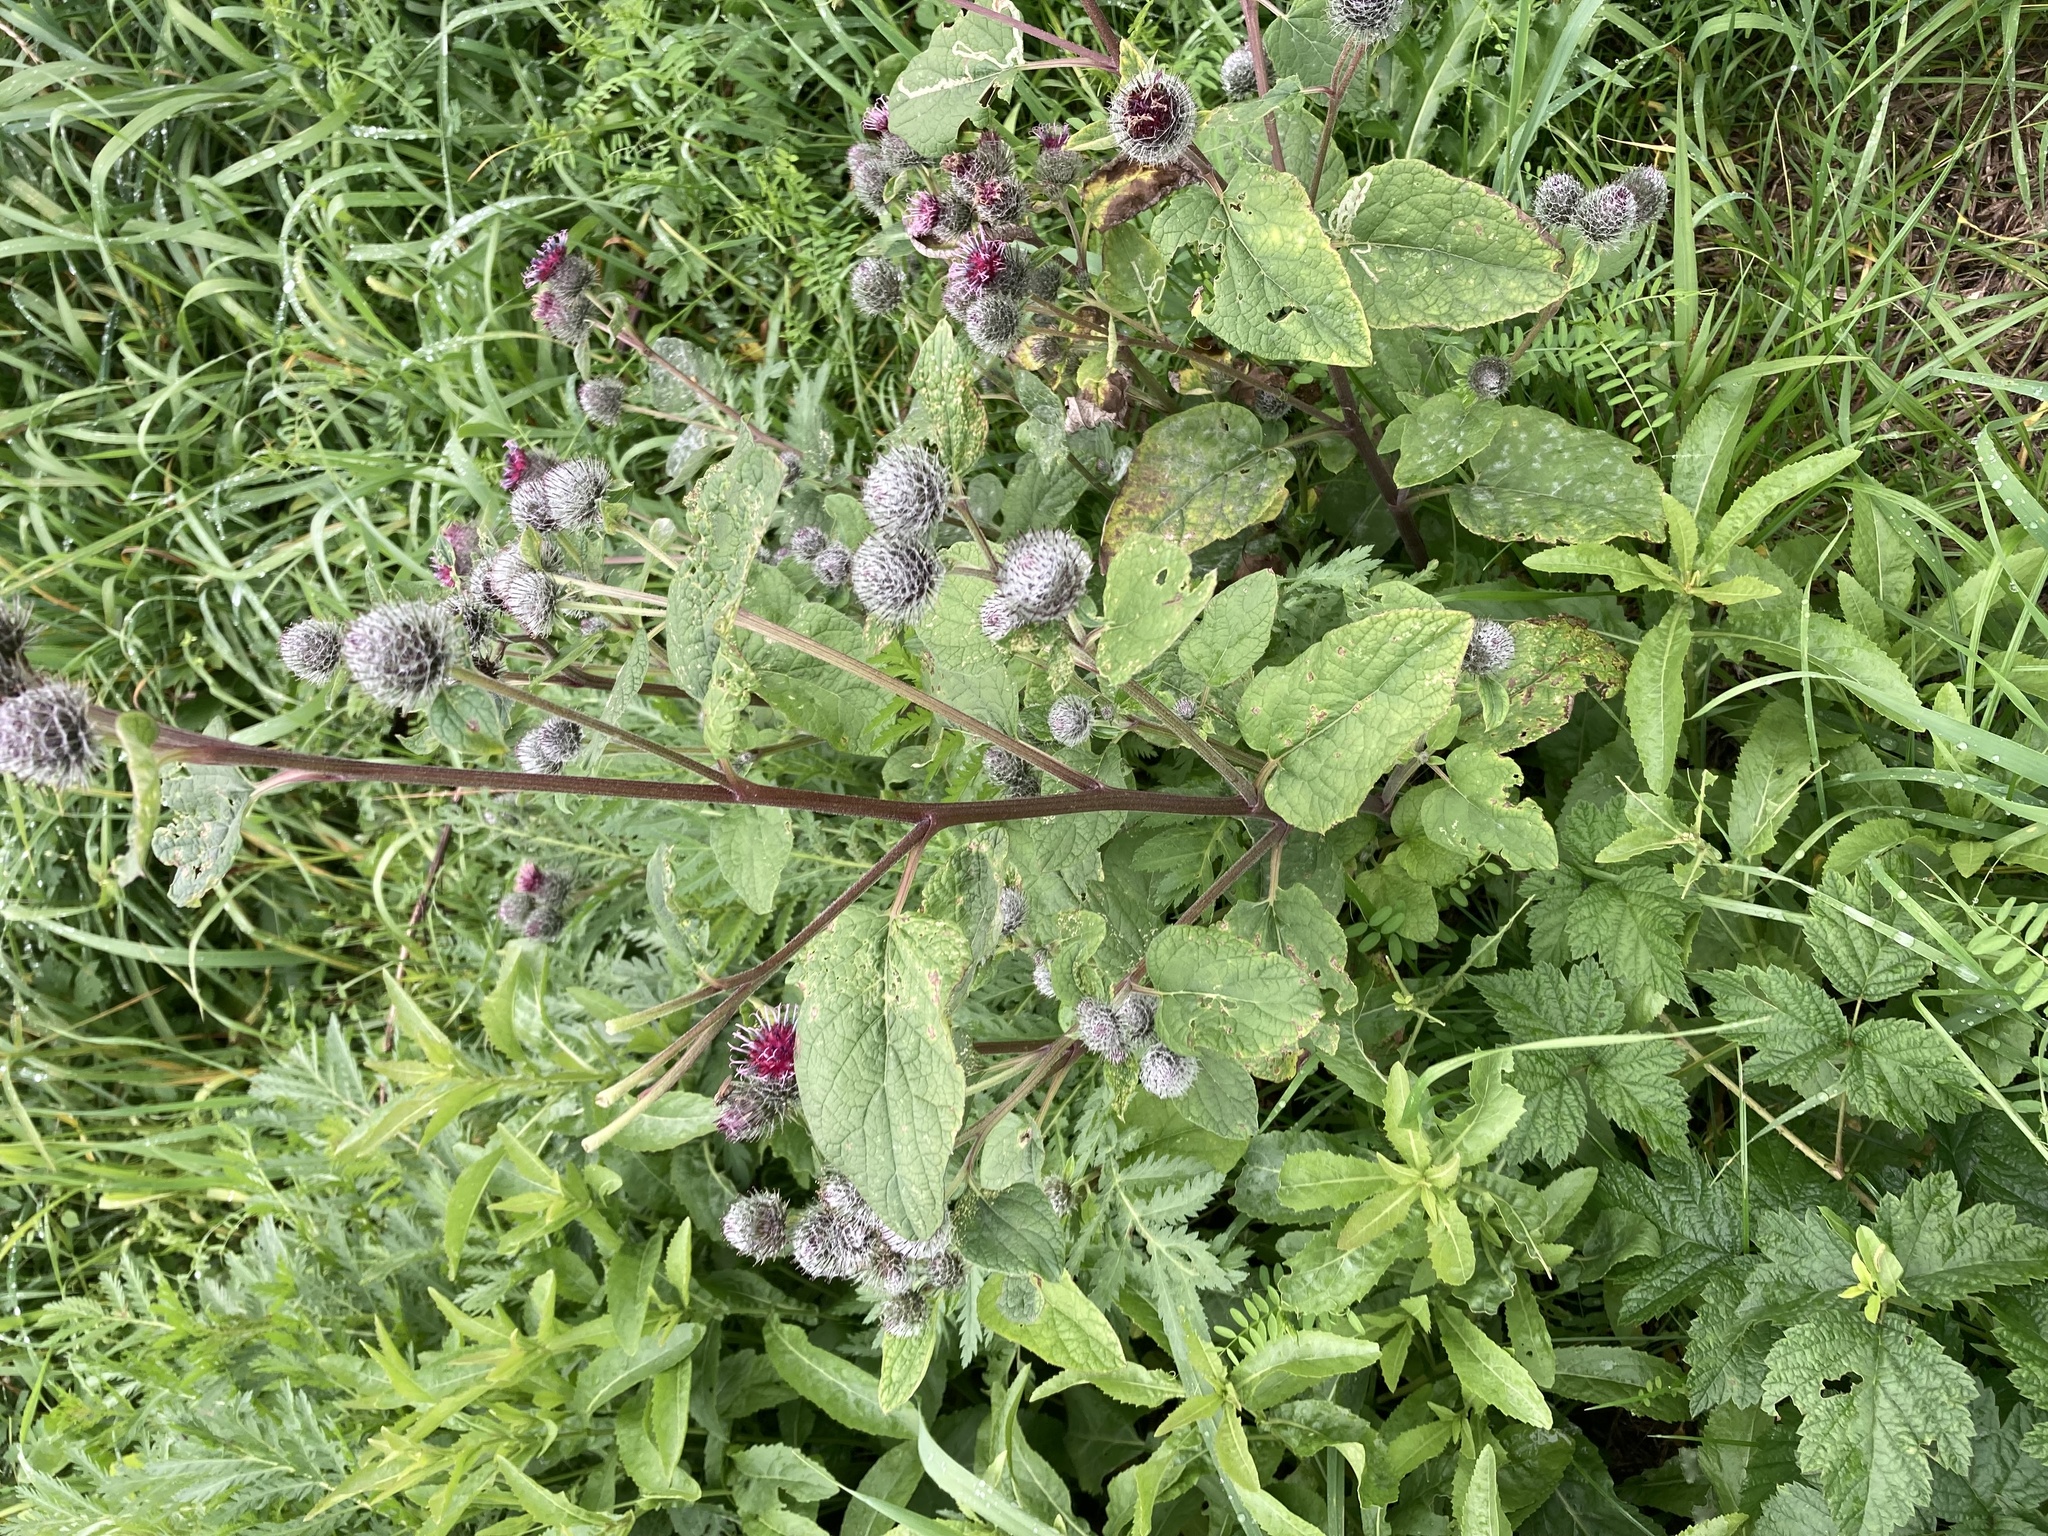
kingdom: Plantae
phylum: Tracheophyta
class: Magnoliopsida
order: Asterales
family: Asteraceae
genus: Arctium
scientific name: Arctium tomentosum
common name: Woolly burdock
